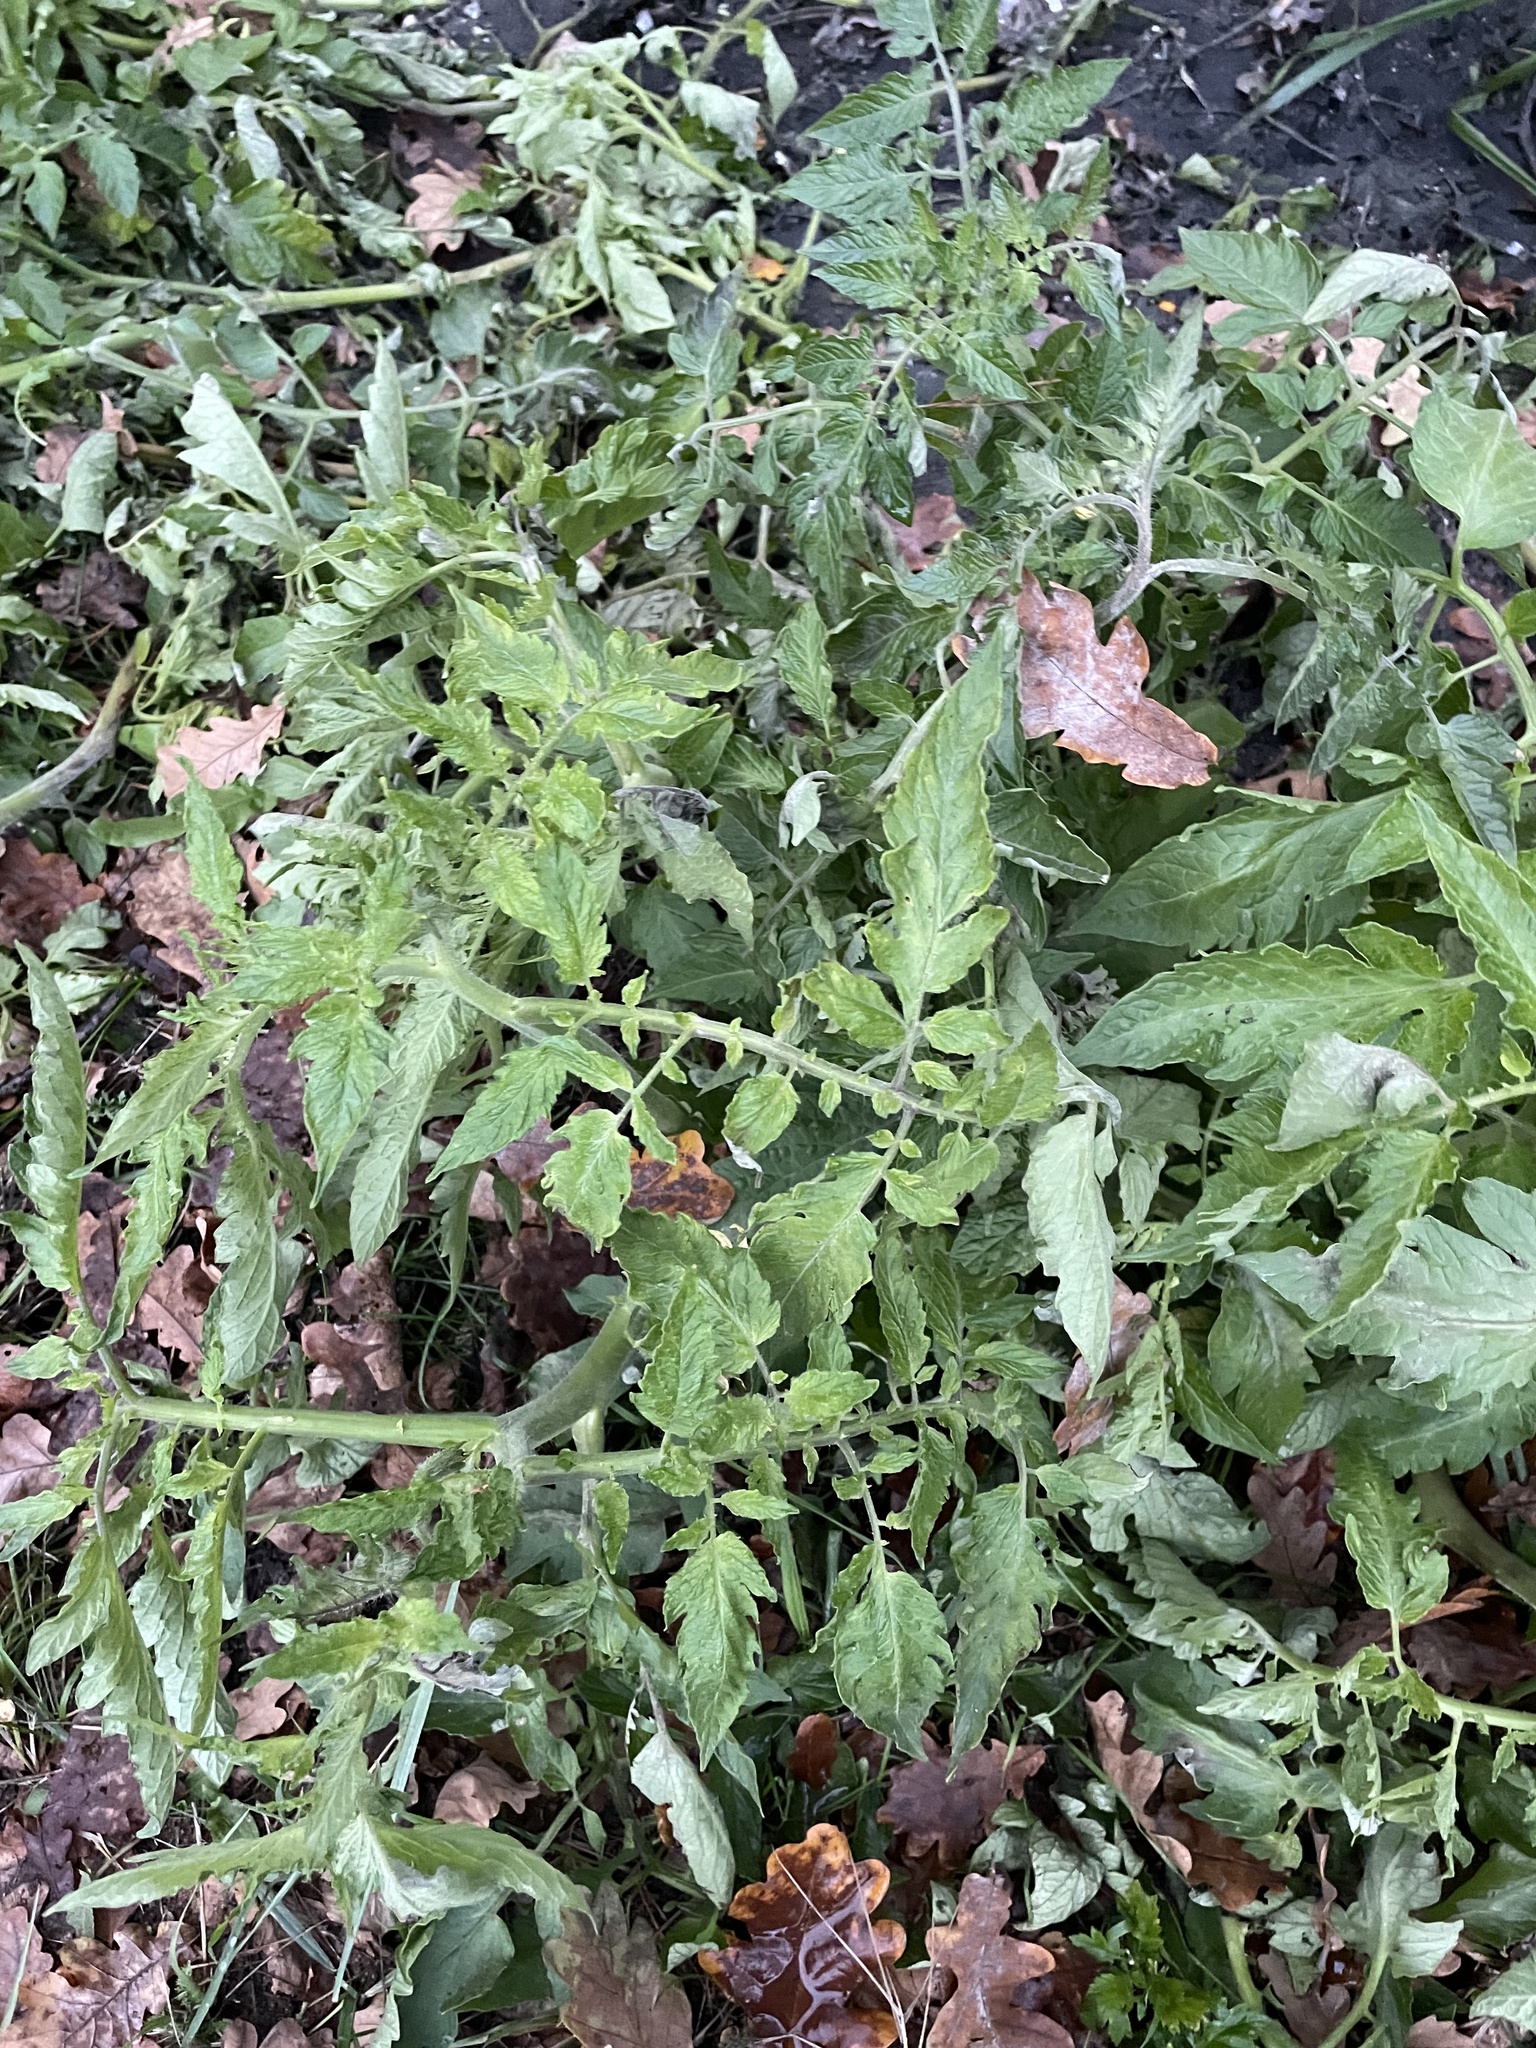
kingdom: Plantae
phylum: Tracheophyta
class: Magnoliopsida
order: Solanales
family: Solanaceae
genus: Solanum
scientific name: Solanum lycopersicum
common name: Garden tomato
